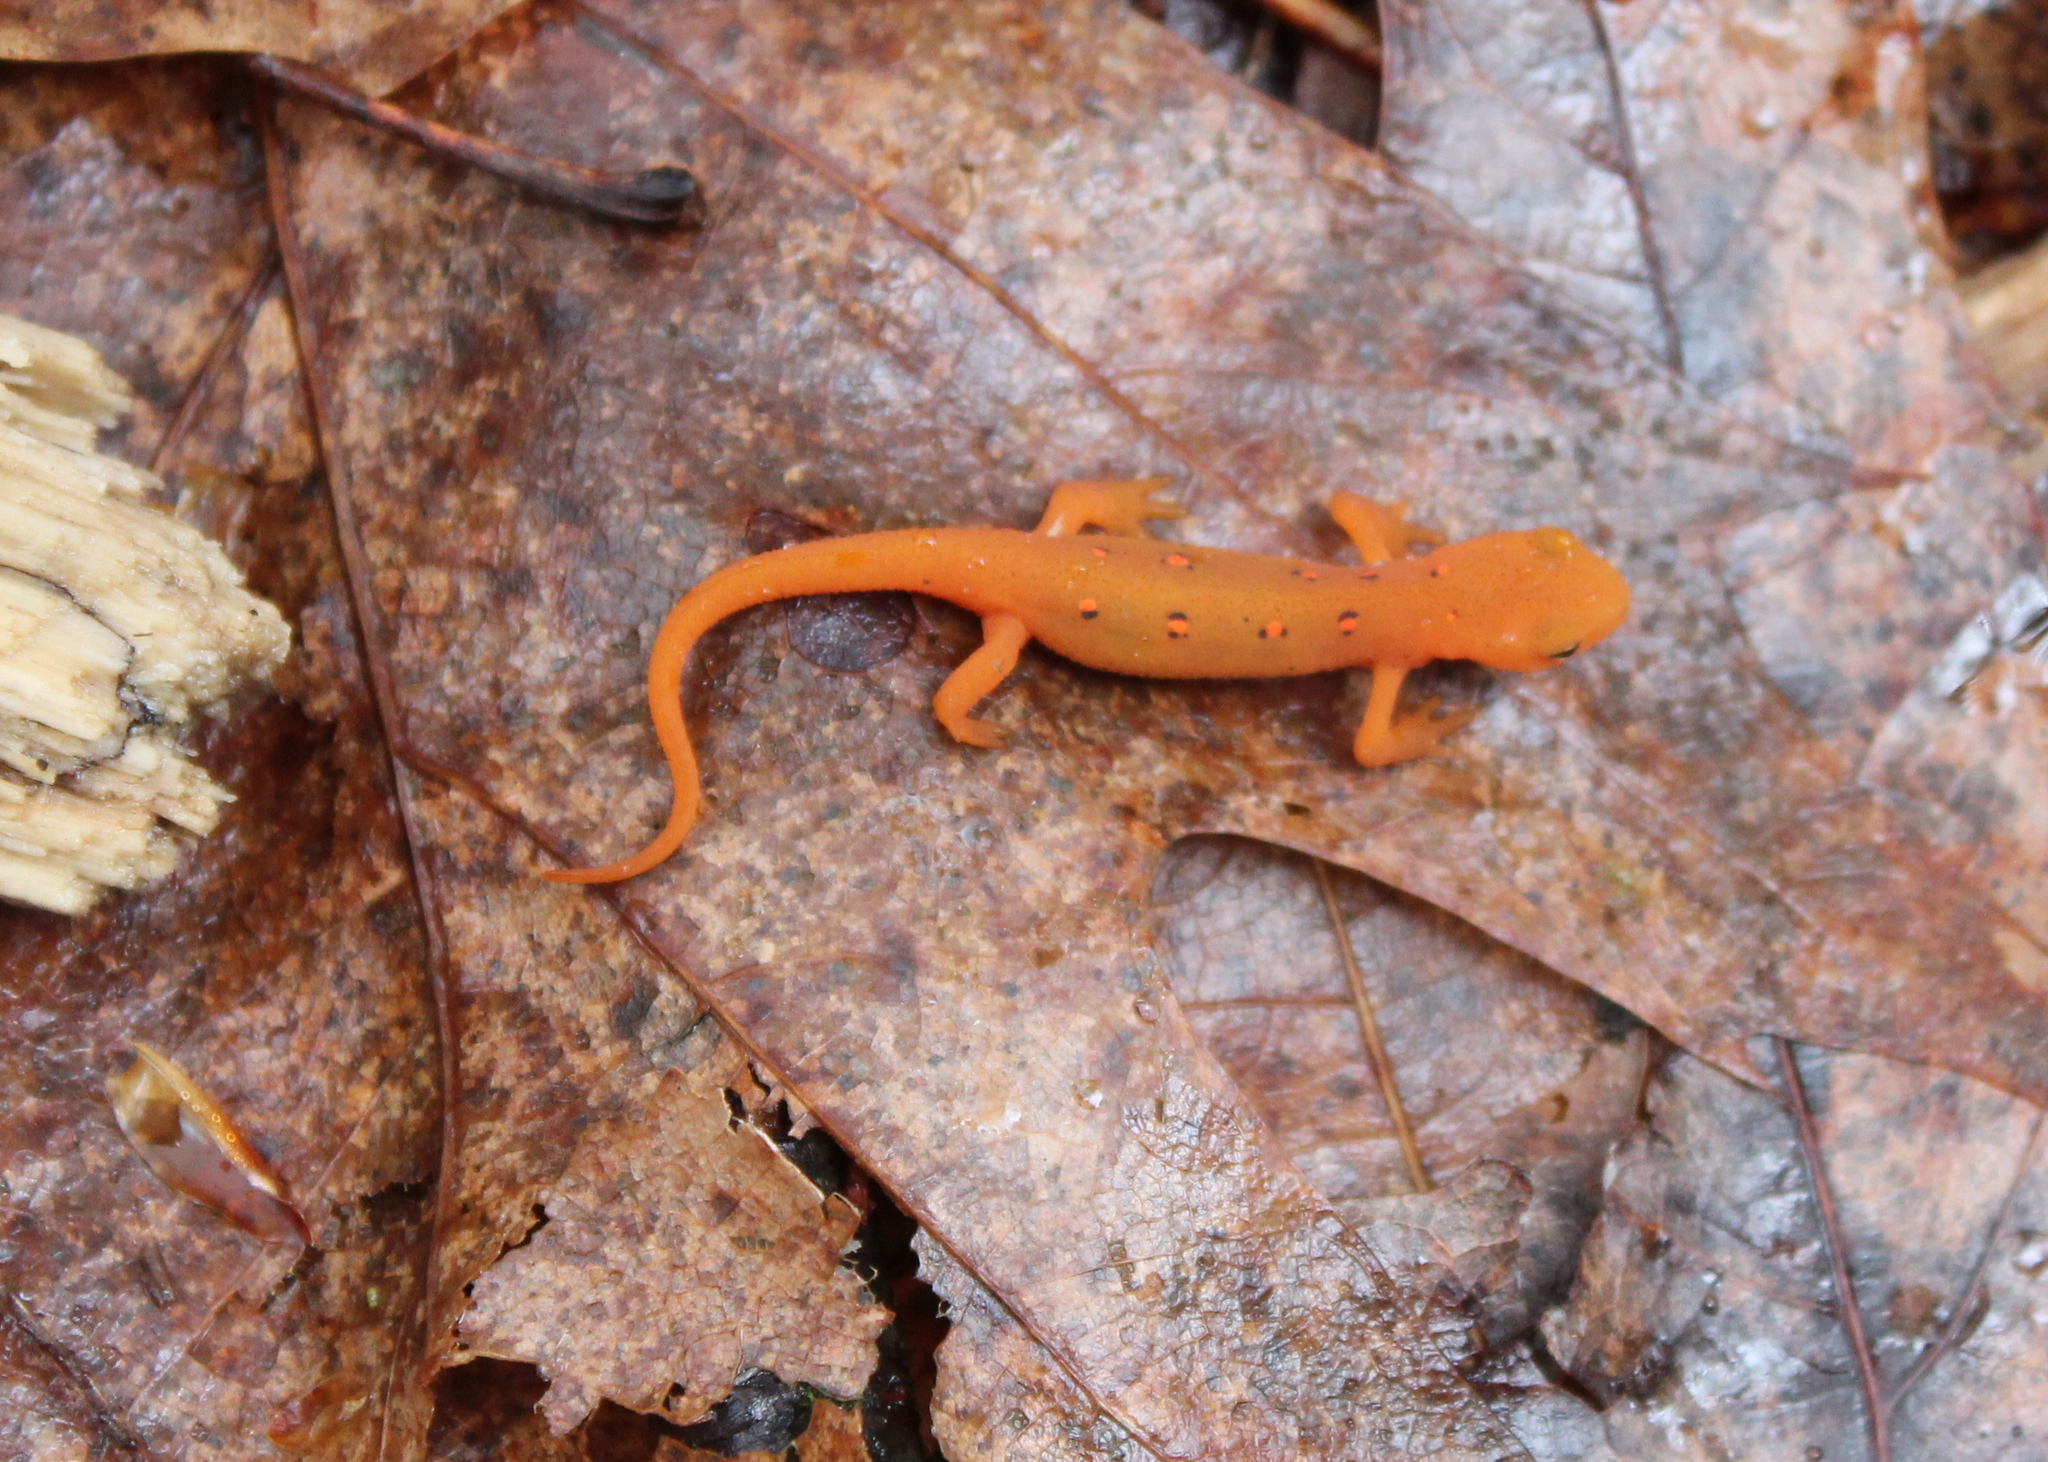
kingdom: Animalia
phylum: Chordata
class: Amphibia
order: Caudata
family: Salamandridae
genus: Notophthalmus
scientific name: Notophthalmus viridescens
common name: Eastern newt
